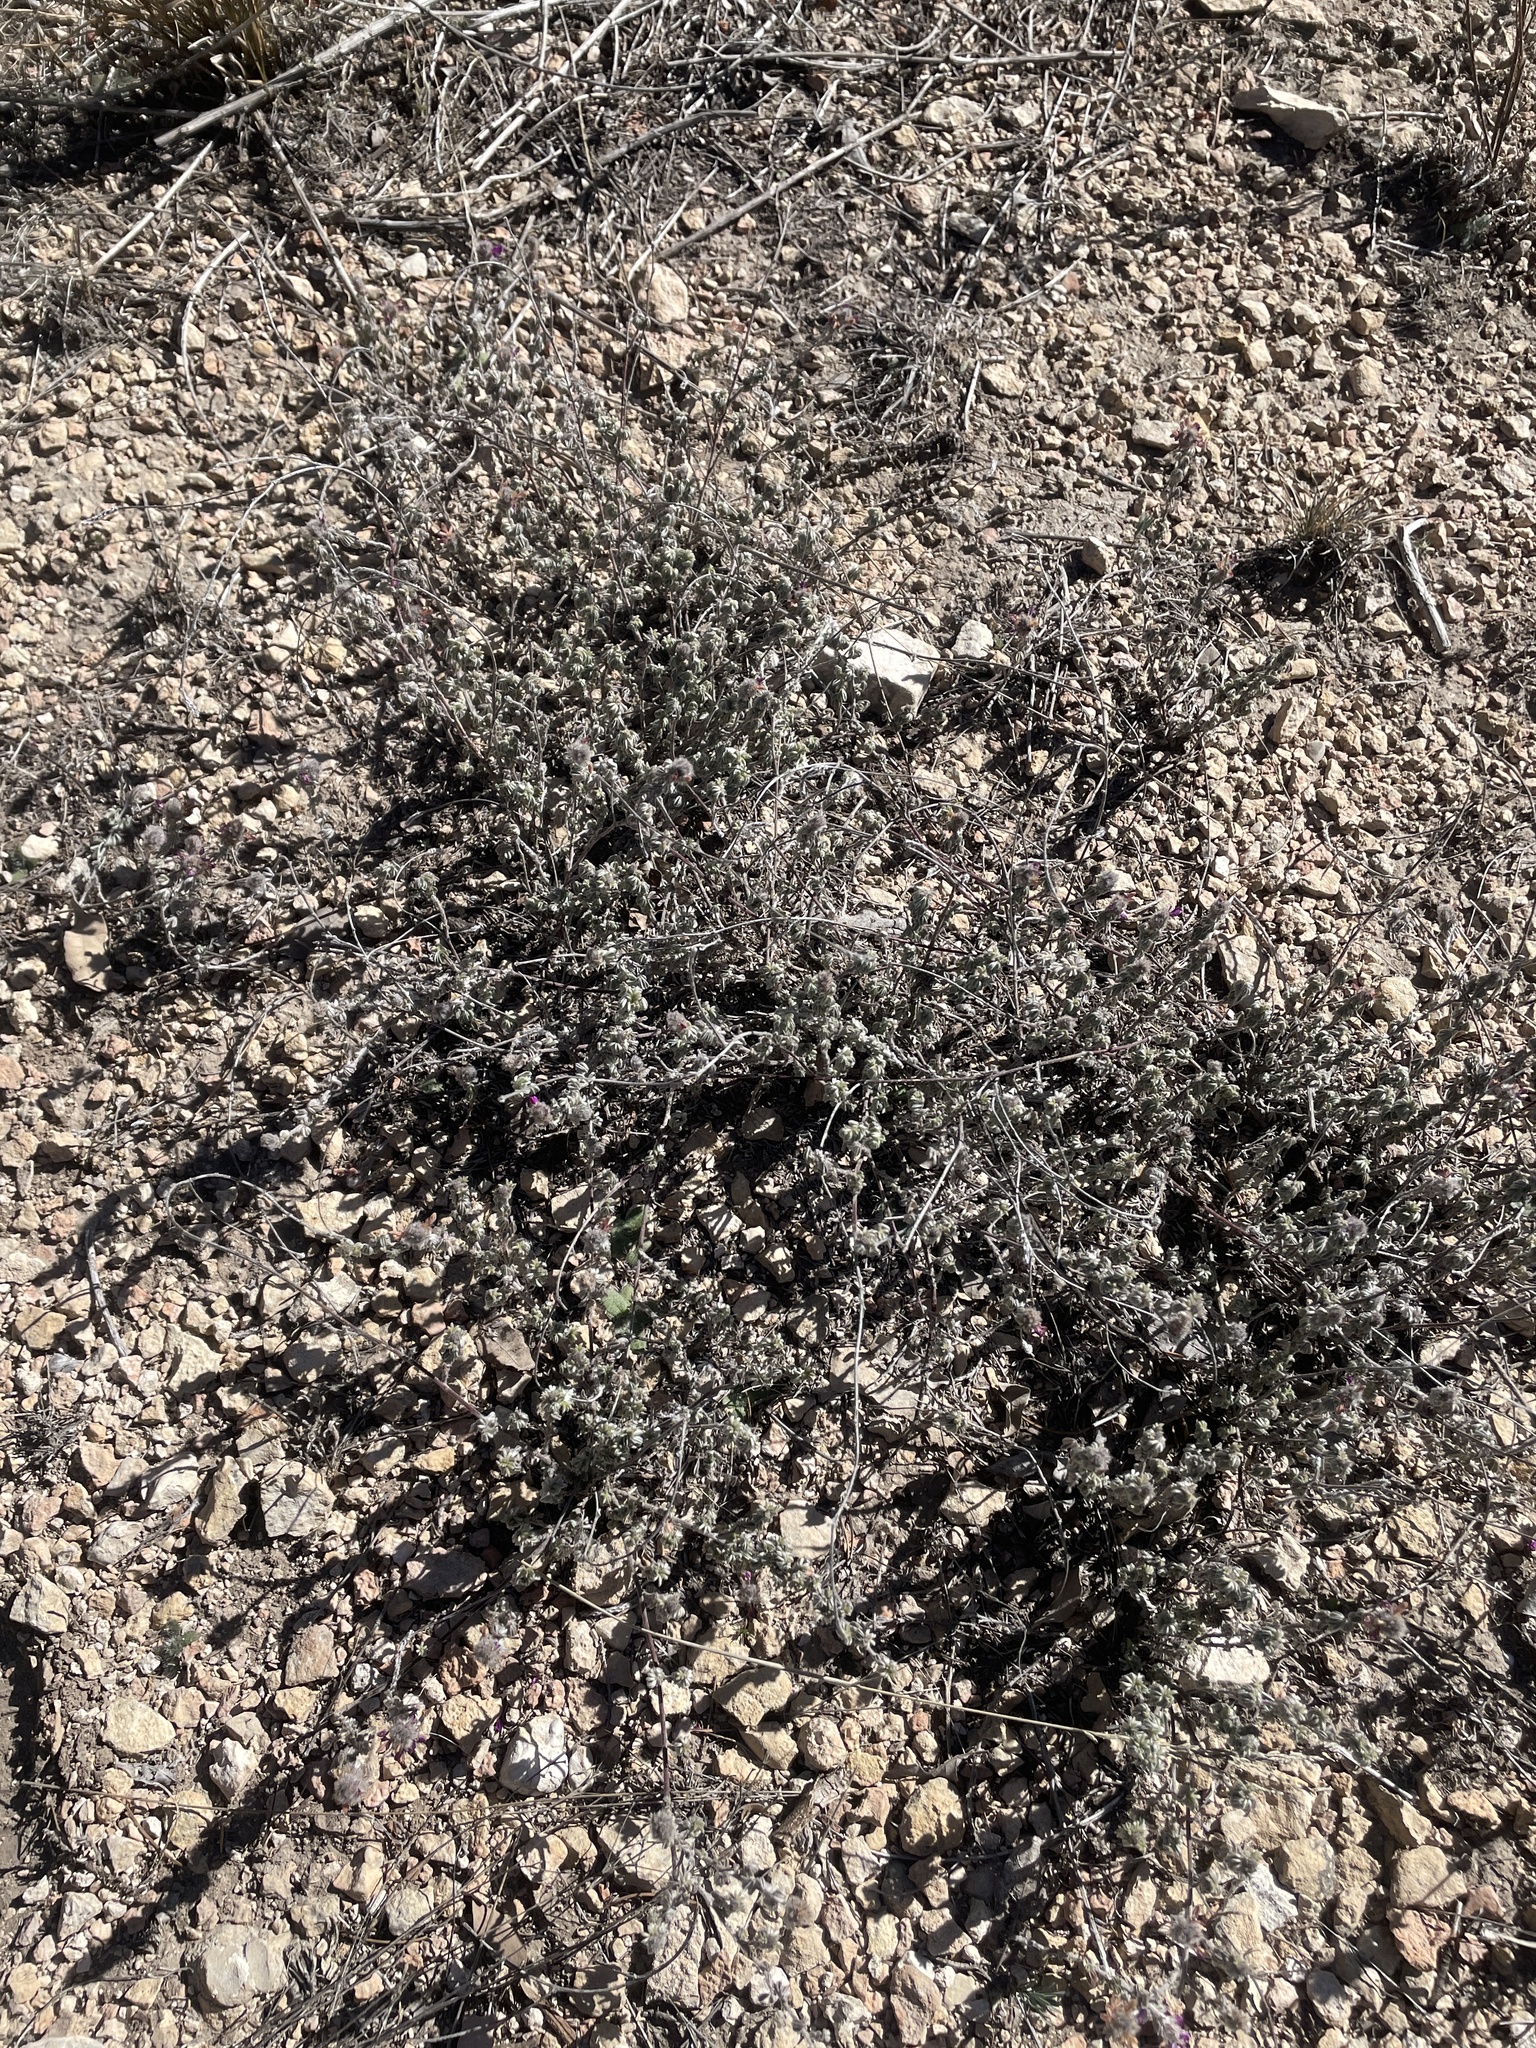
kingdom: Plantae
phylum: Tracheophyta
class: Magnoliopsida
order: Fabales
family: Fabaceae
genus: Dalea
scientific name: Dalea greggii
